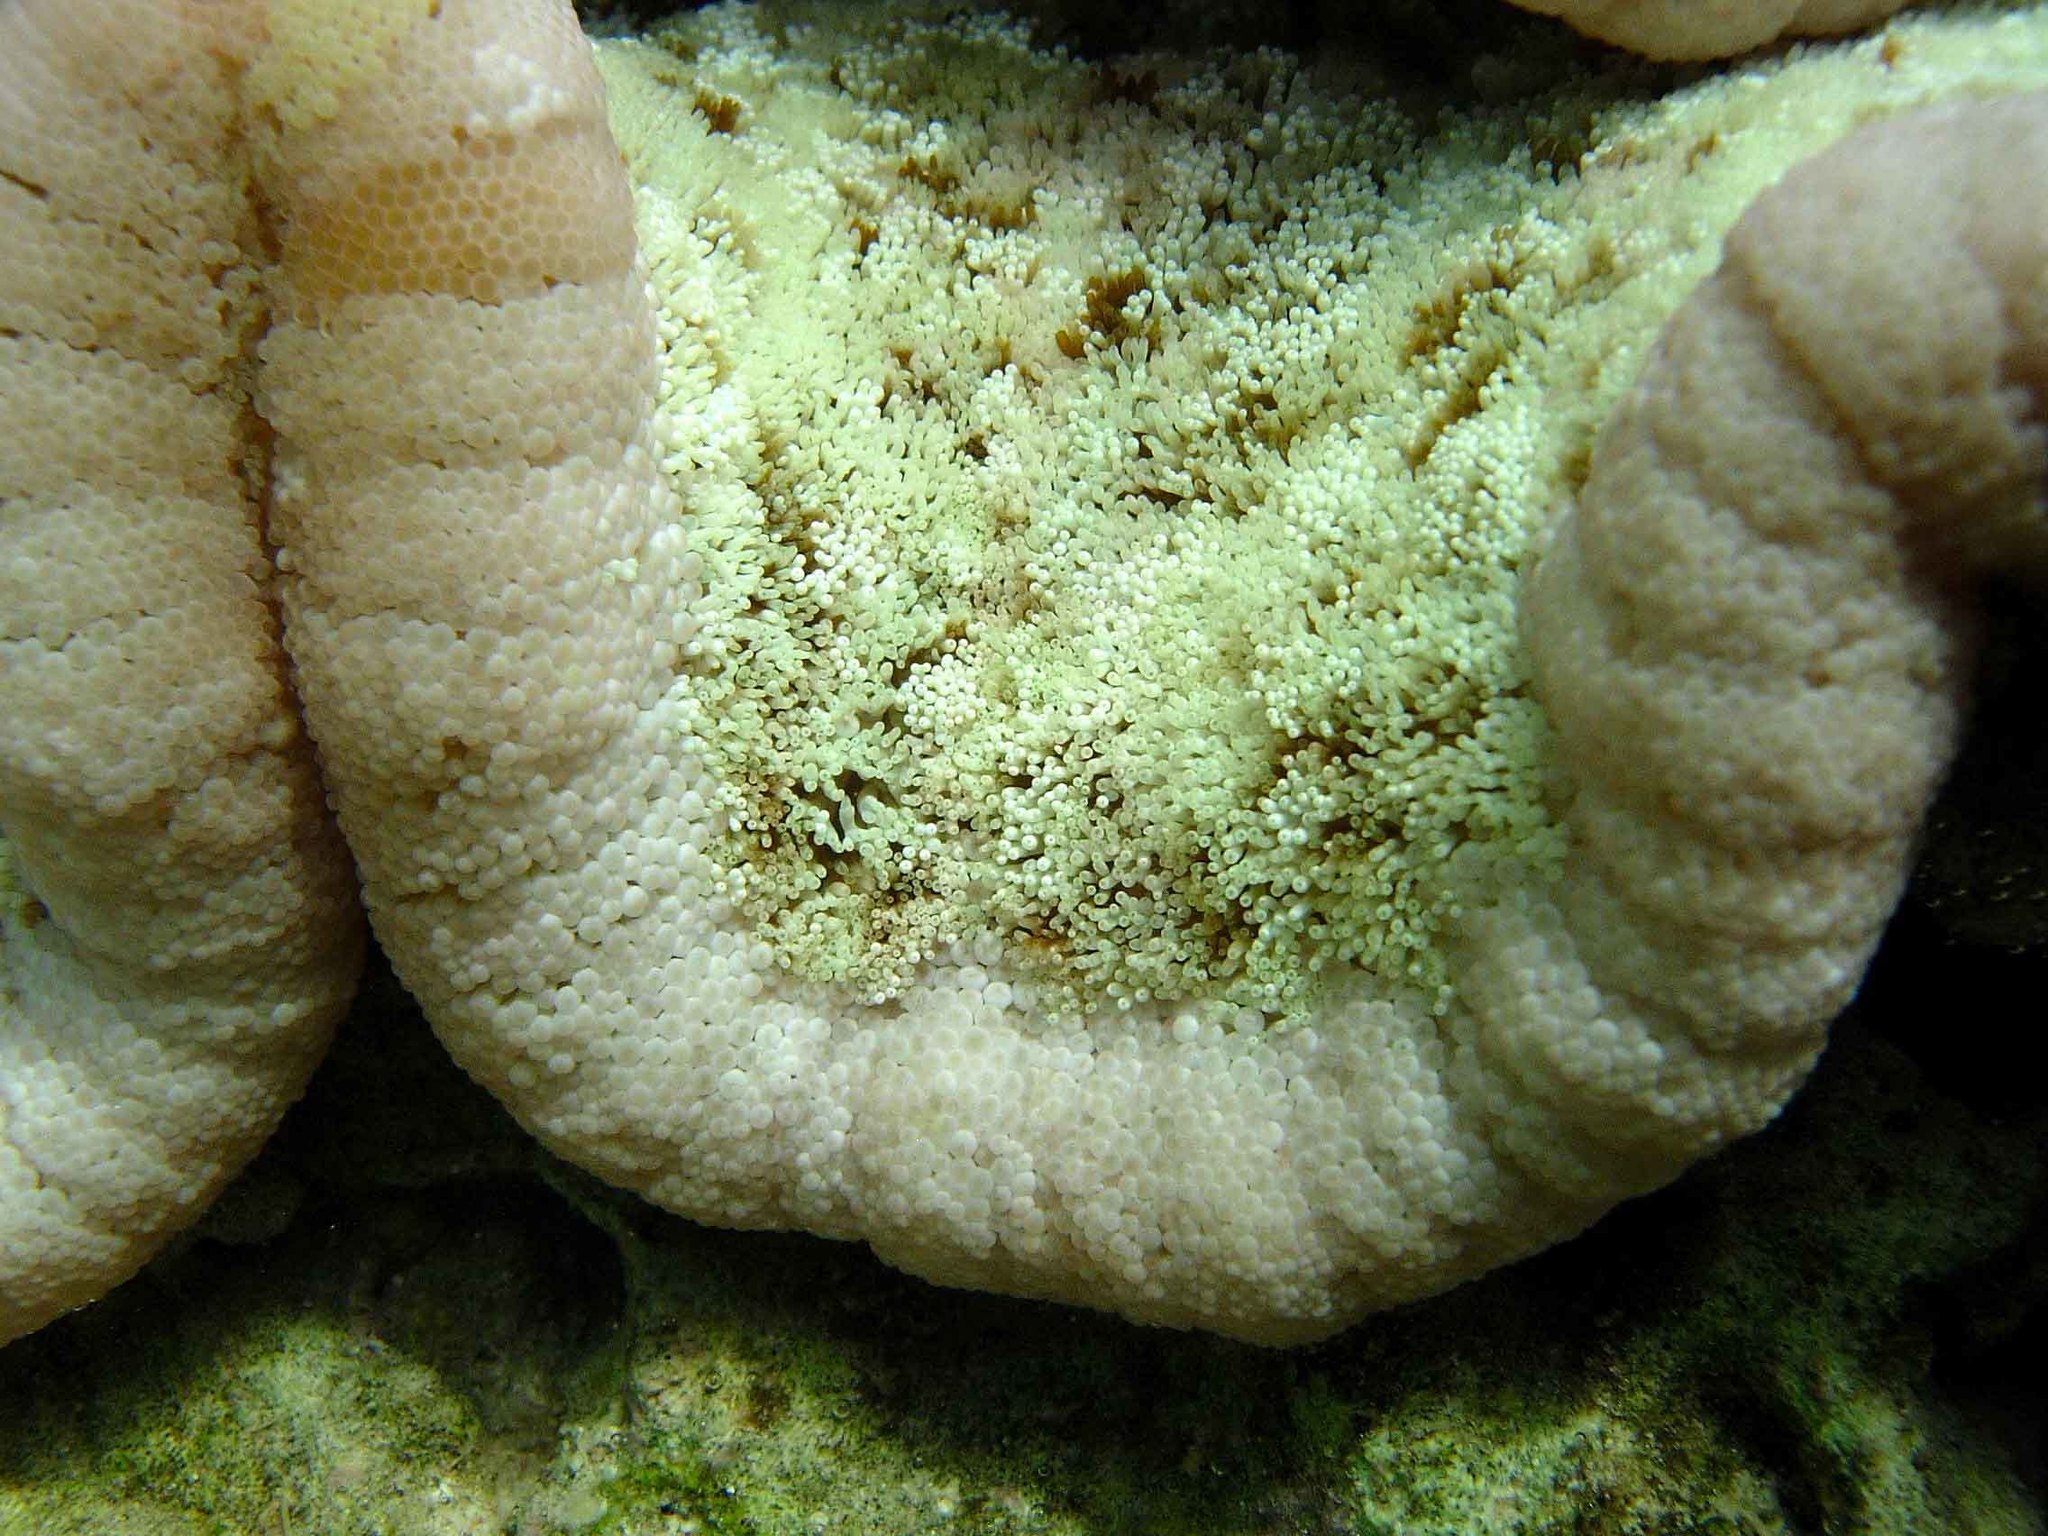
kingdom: Animalia
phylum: Cnidaria
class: Anthozoa
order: Actiniaria
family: Thalassianthidae
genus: Cryptodendrum
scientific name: Cryptodendrum adhaesivum
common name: Adhesive sea anemone
